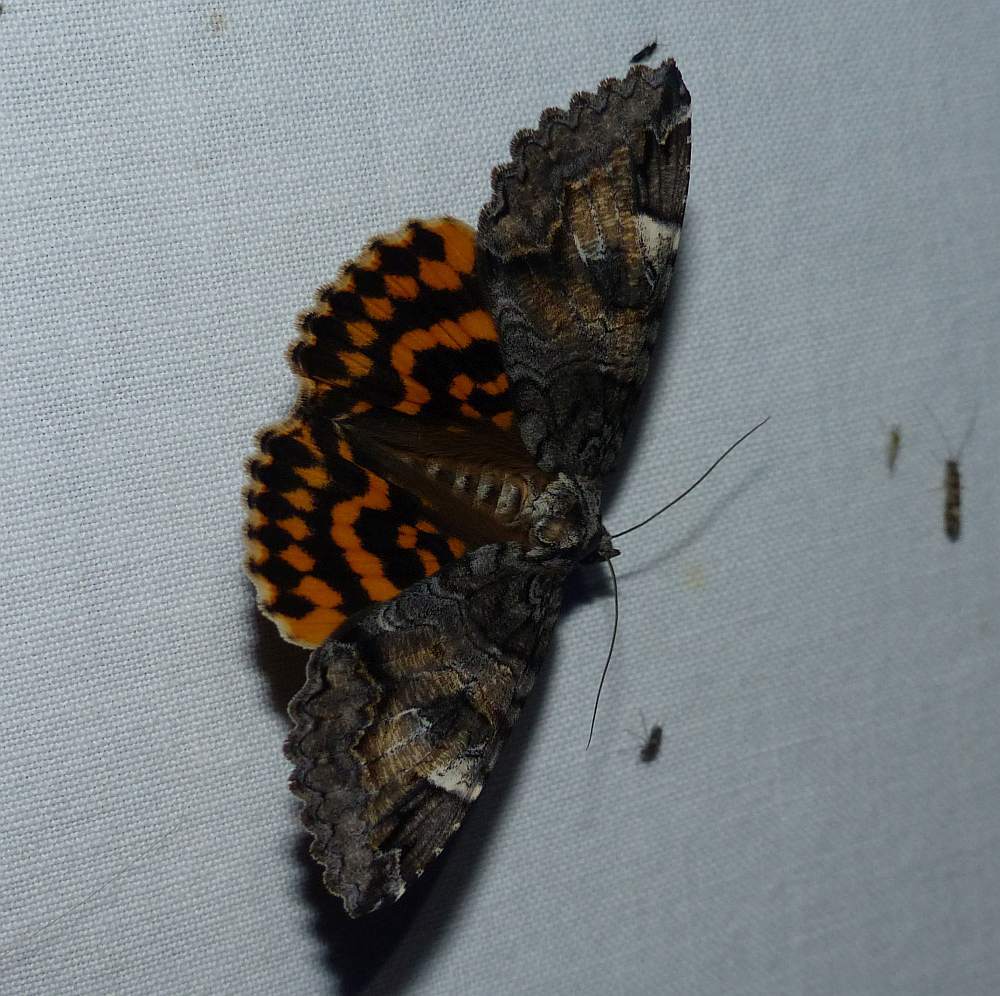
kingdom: Animalia
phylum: Arthropoda
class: Insecta
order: Lepidoptera
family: Erebidae
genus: Euparthenos
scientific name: Euparthenos nubilis
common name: Locust underwing
